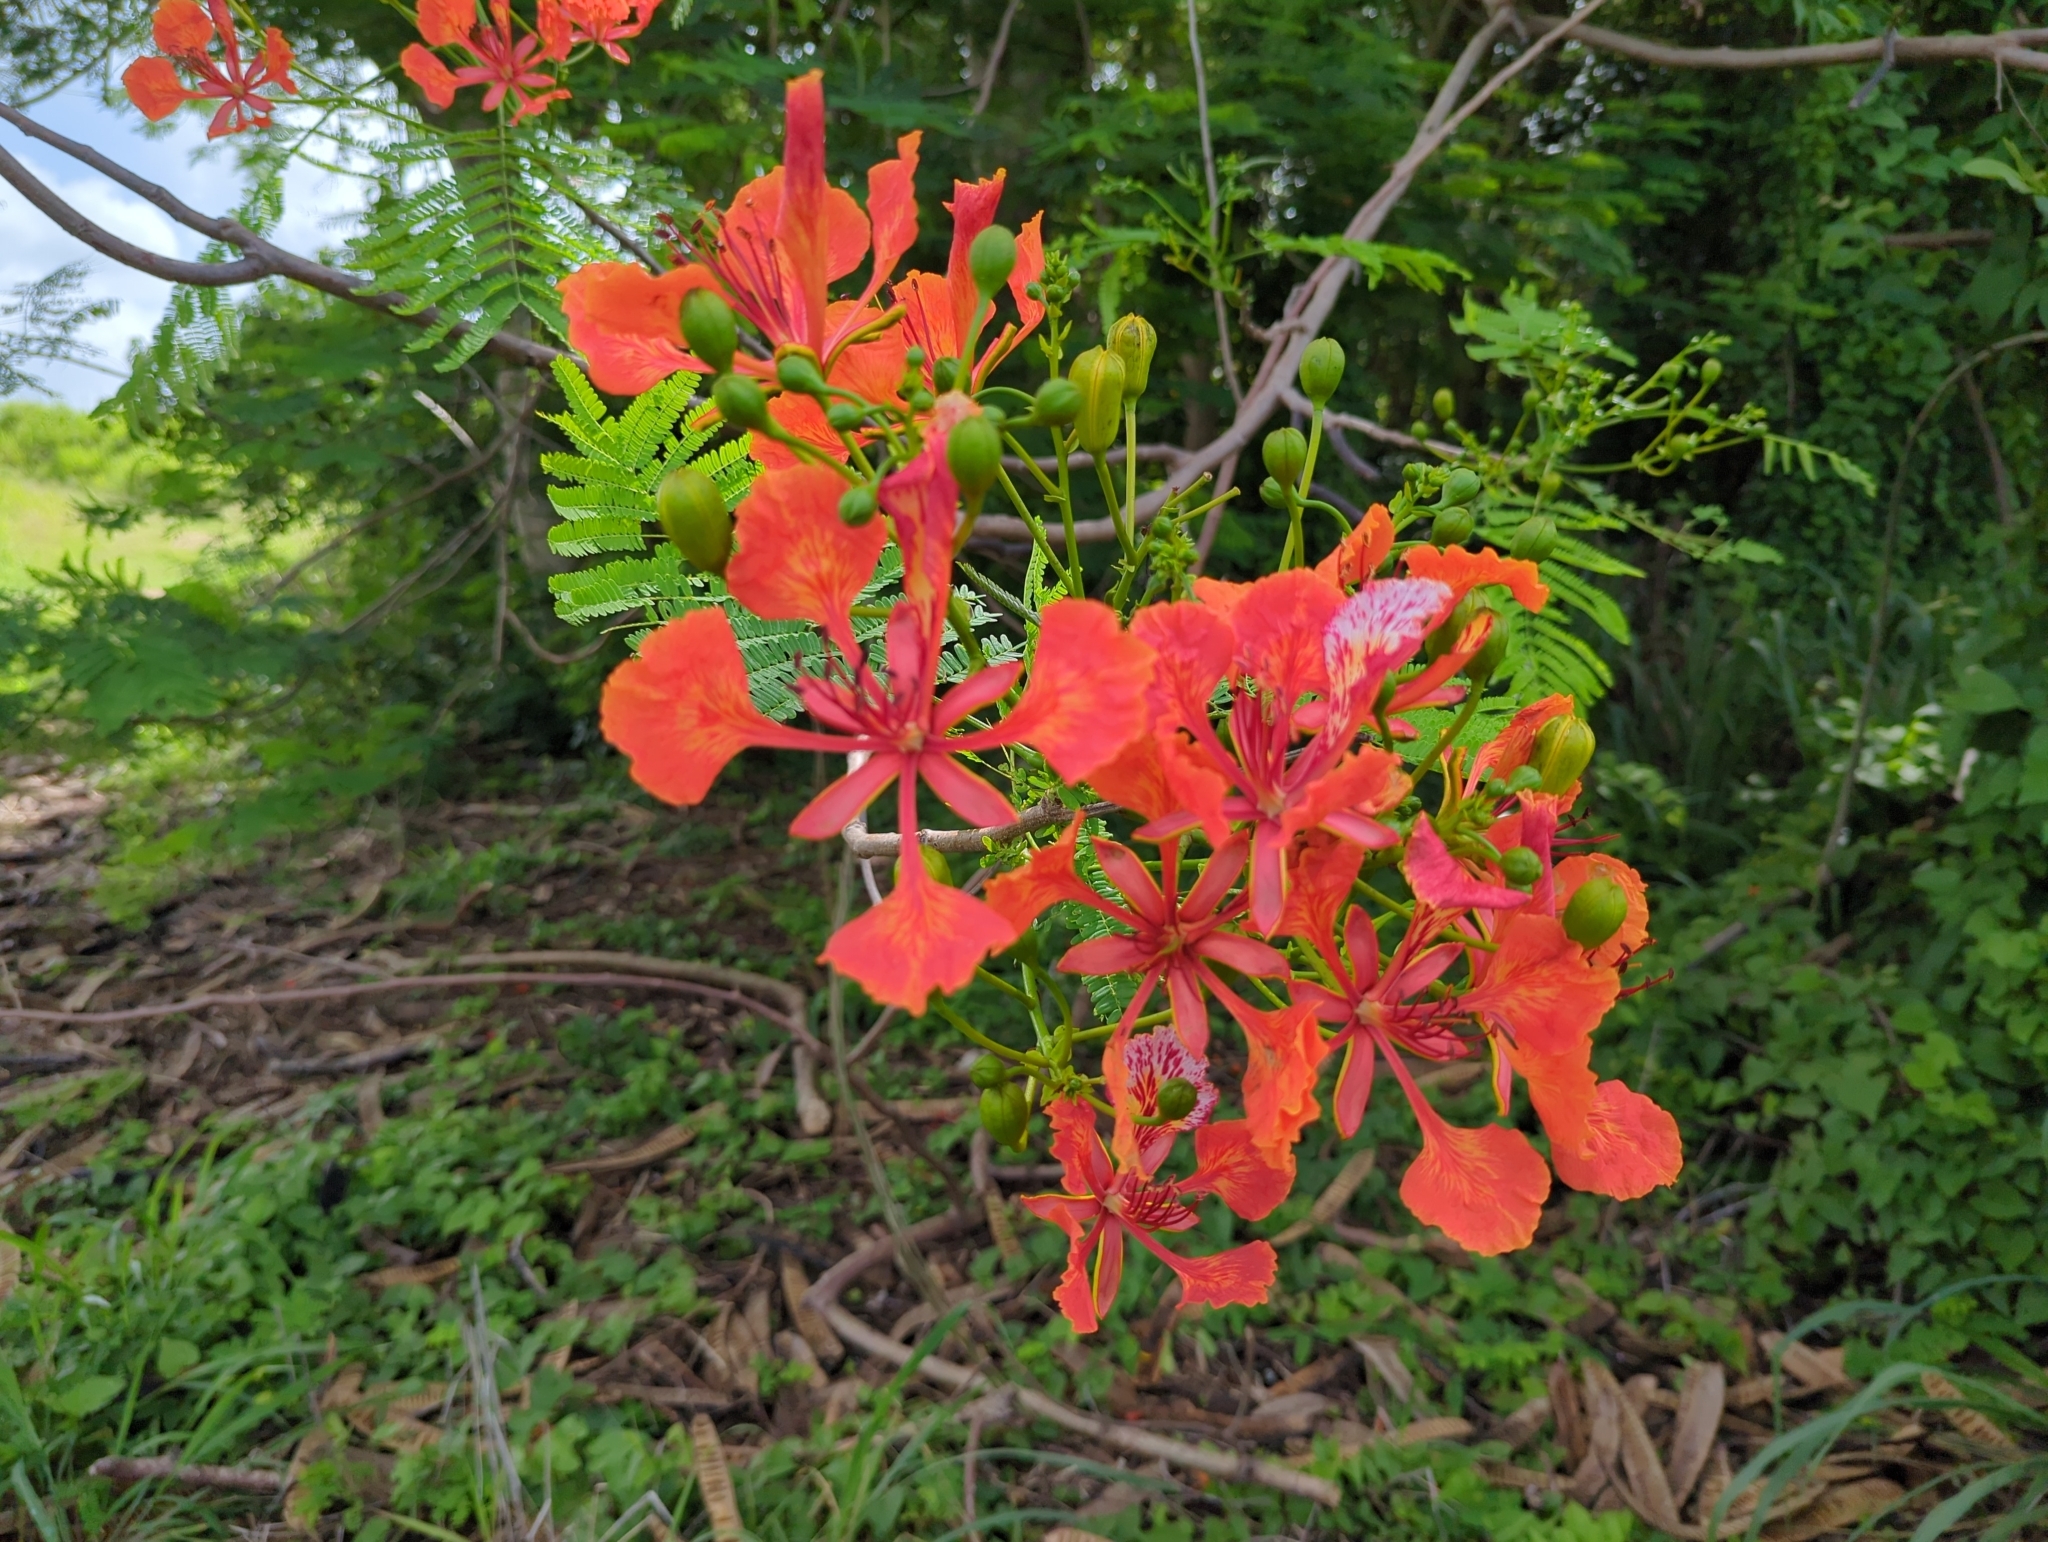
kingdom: Plantae
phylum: Tracheophyta
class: Magnoliopsida
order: Fabales
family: Fabaceae
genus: Delonix
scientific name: Delonix regia
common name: Royal poinciana
